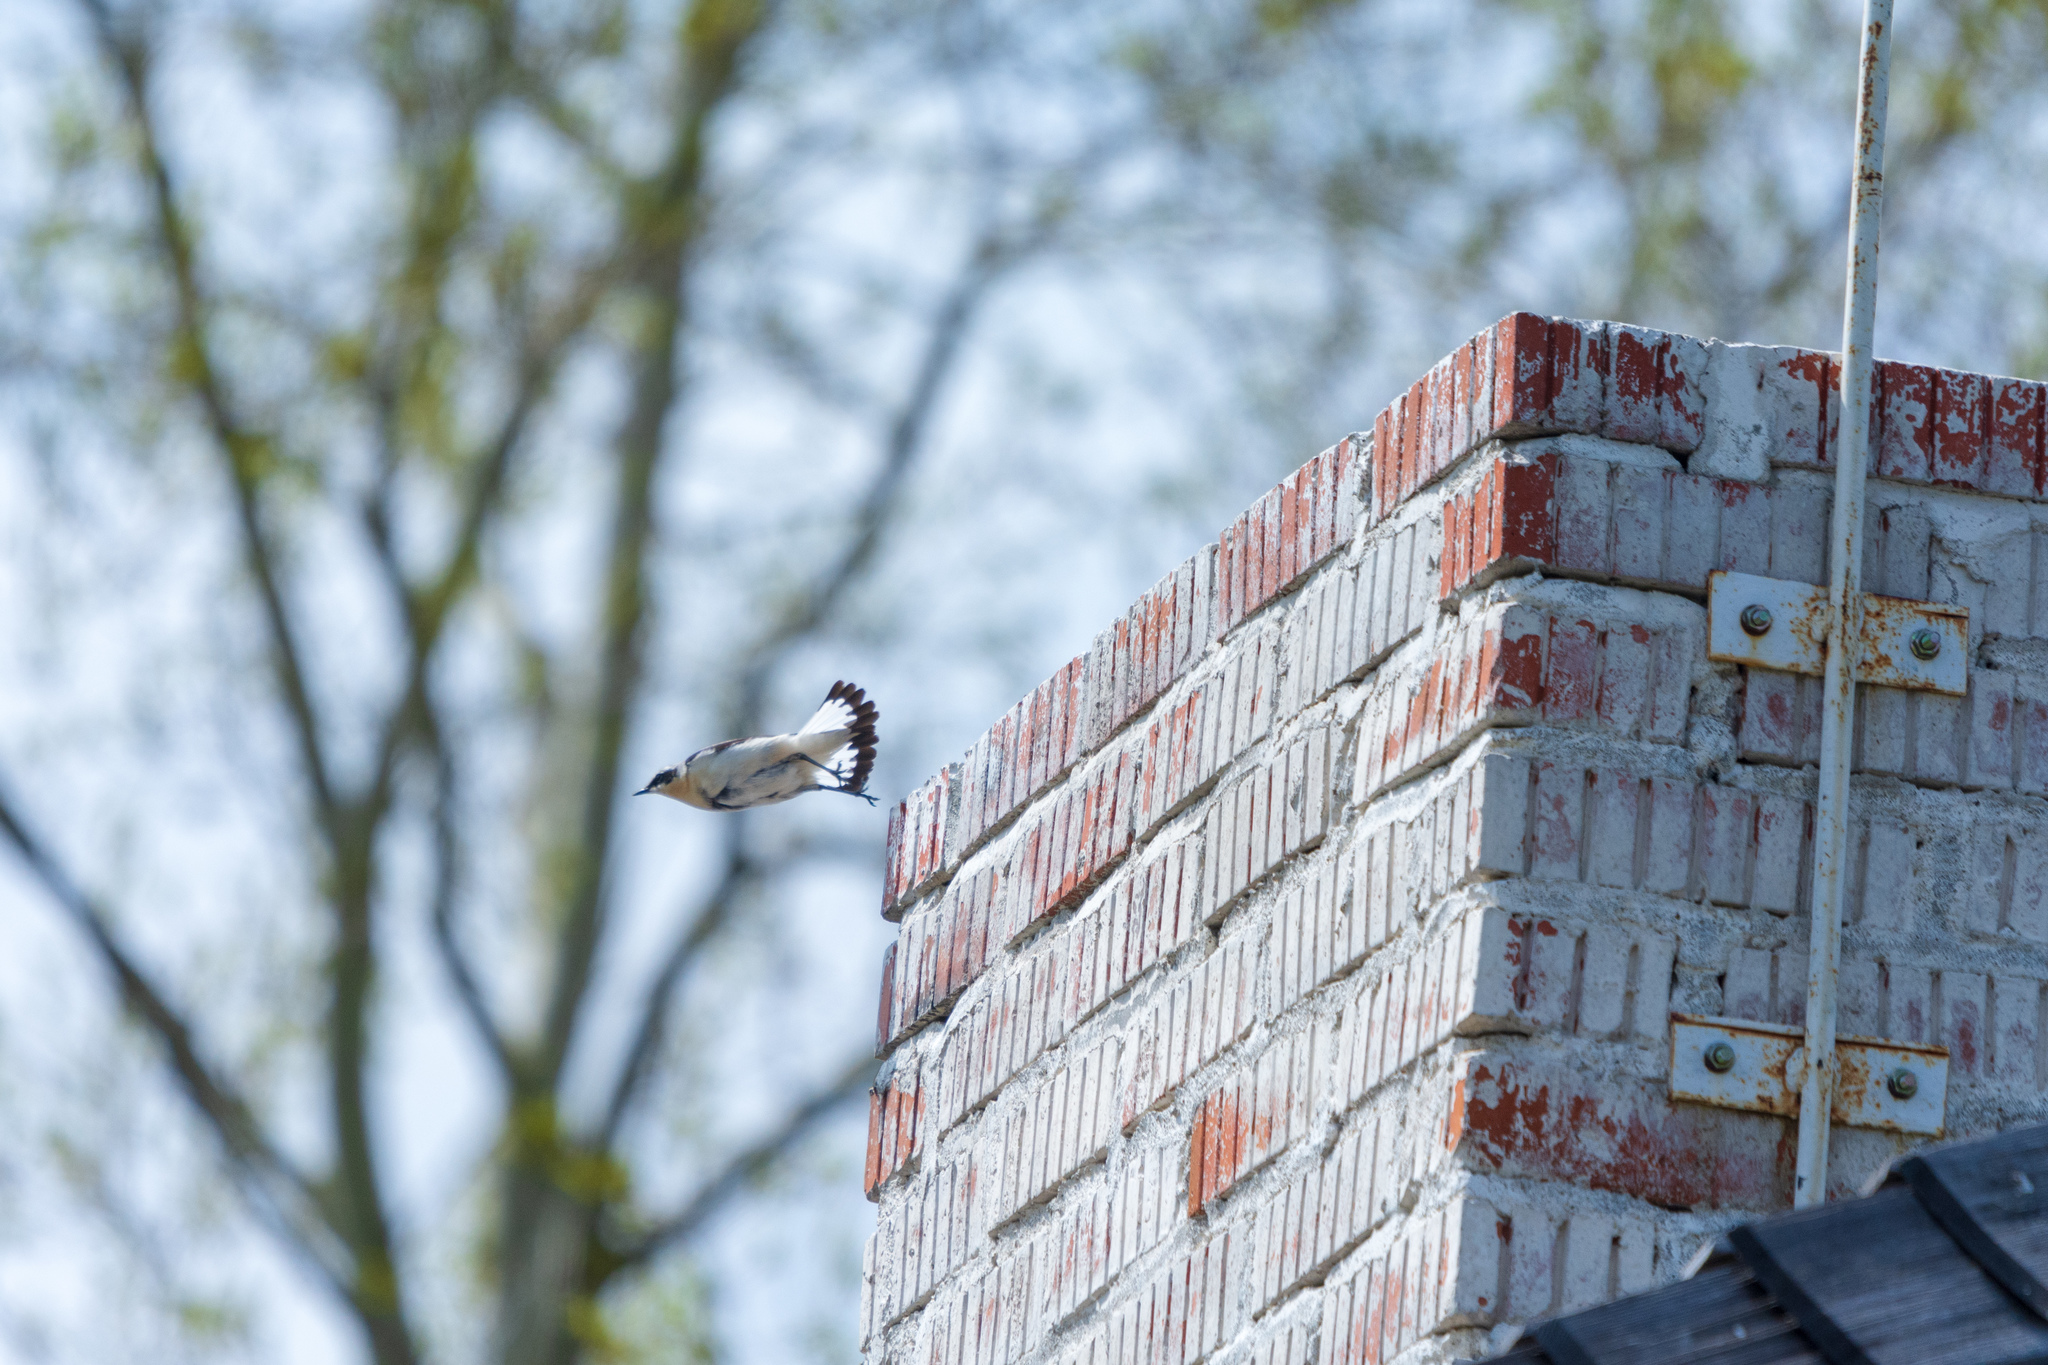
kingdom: Animalia
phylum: Chordata
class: Aves
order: Passeriformes
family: Muscicapidae
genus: Oenanthe
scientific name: Oenanthe oenanthe
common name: Northern wheatear
